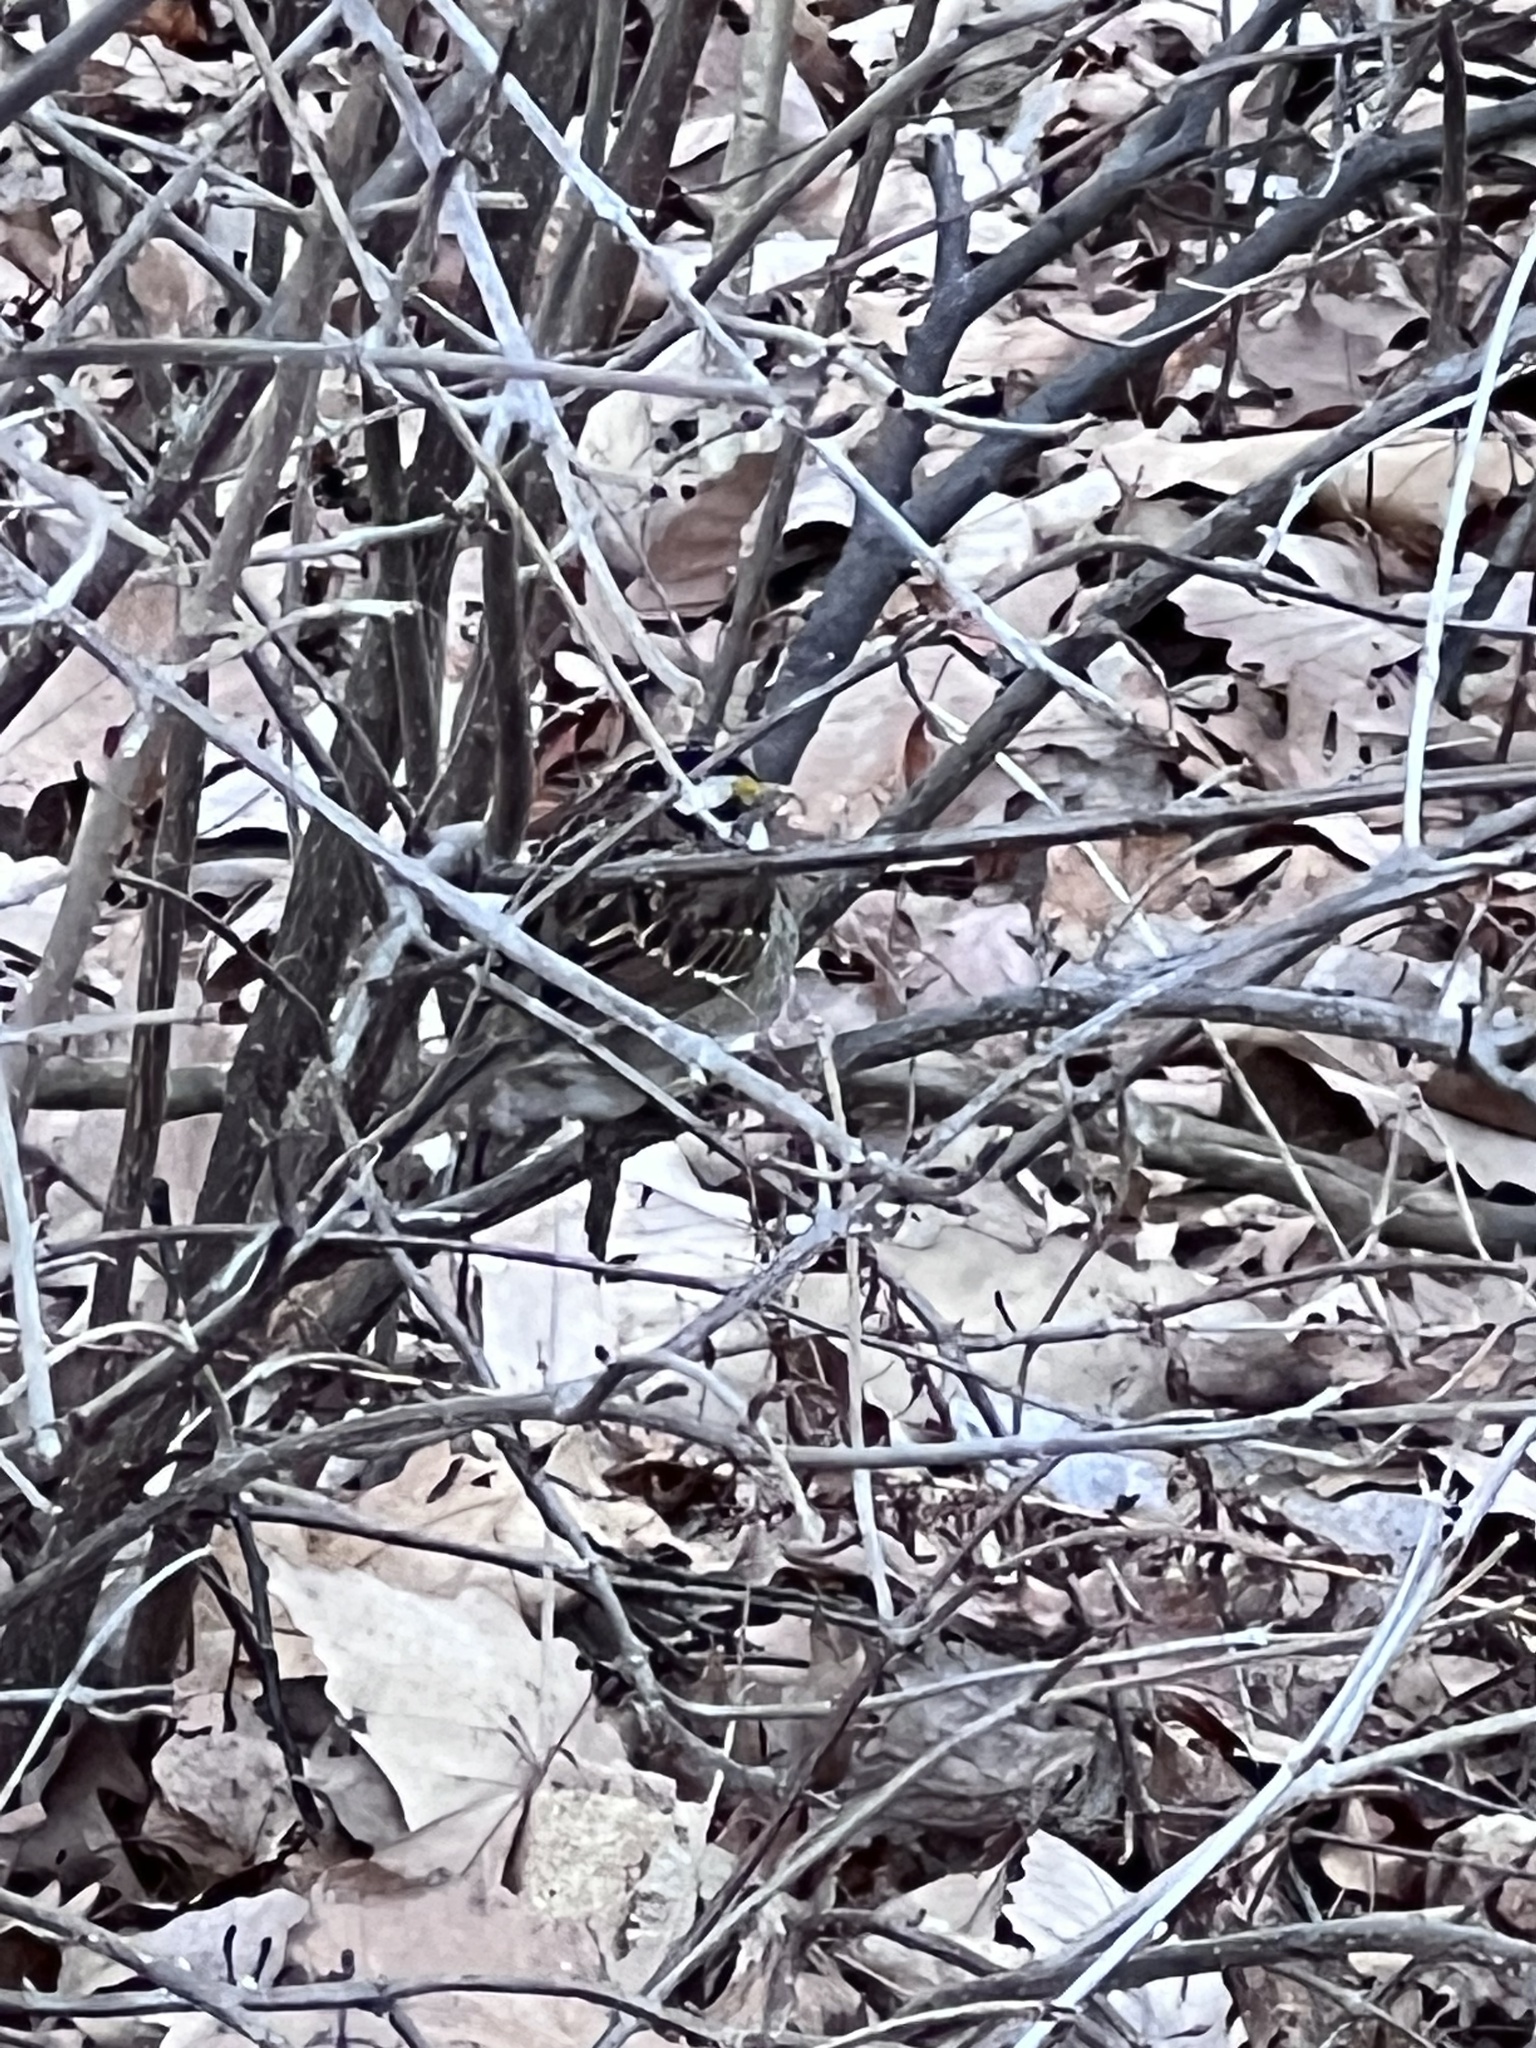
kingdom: Animalia
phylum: Chordata
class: Aves
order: Passeriformes
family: Passerellidae
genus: Zonotrichia
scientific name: Zonotrichia albicollis
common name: White-throated sparrow
